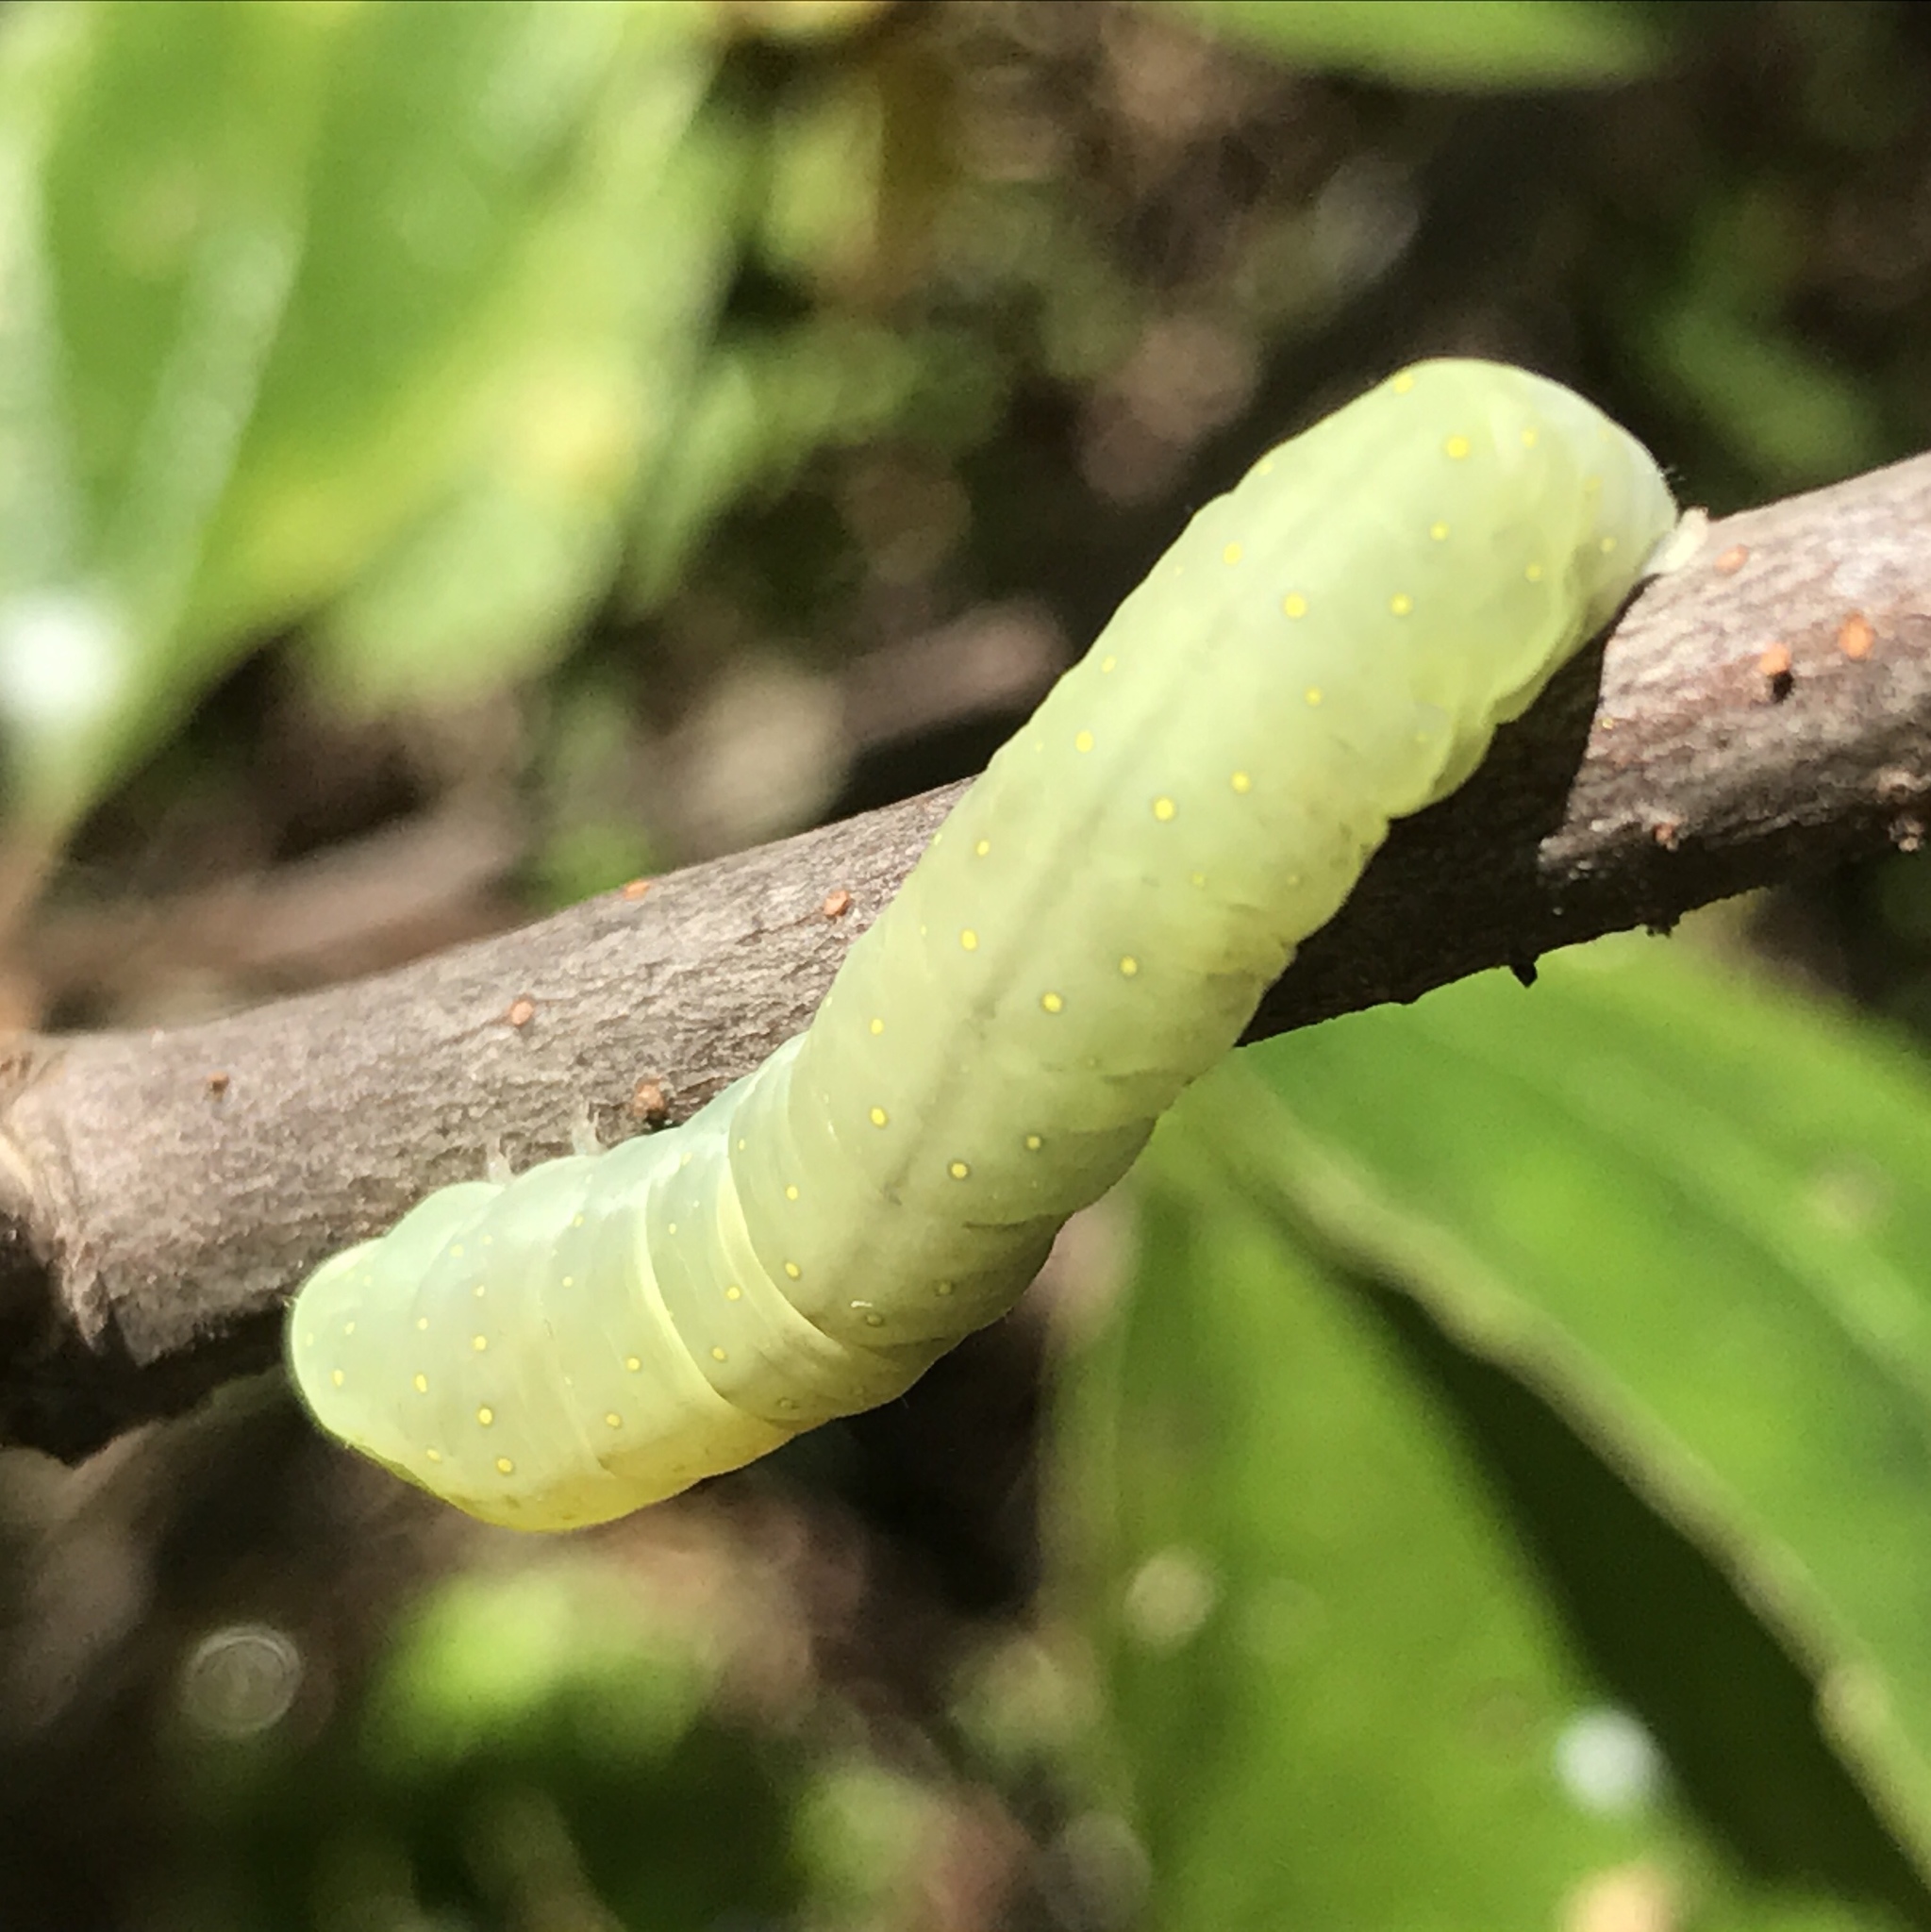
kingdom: Animalia
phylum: Arthropoda
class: Insecta
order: Lepidoptera
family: Noctuidae
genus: Phosphila
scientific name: Phosphila miselioides
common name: Spotted phosphila moth
